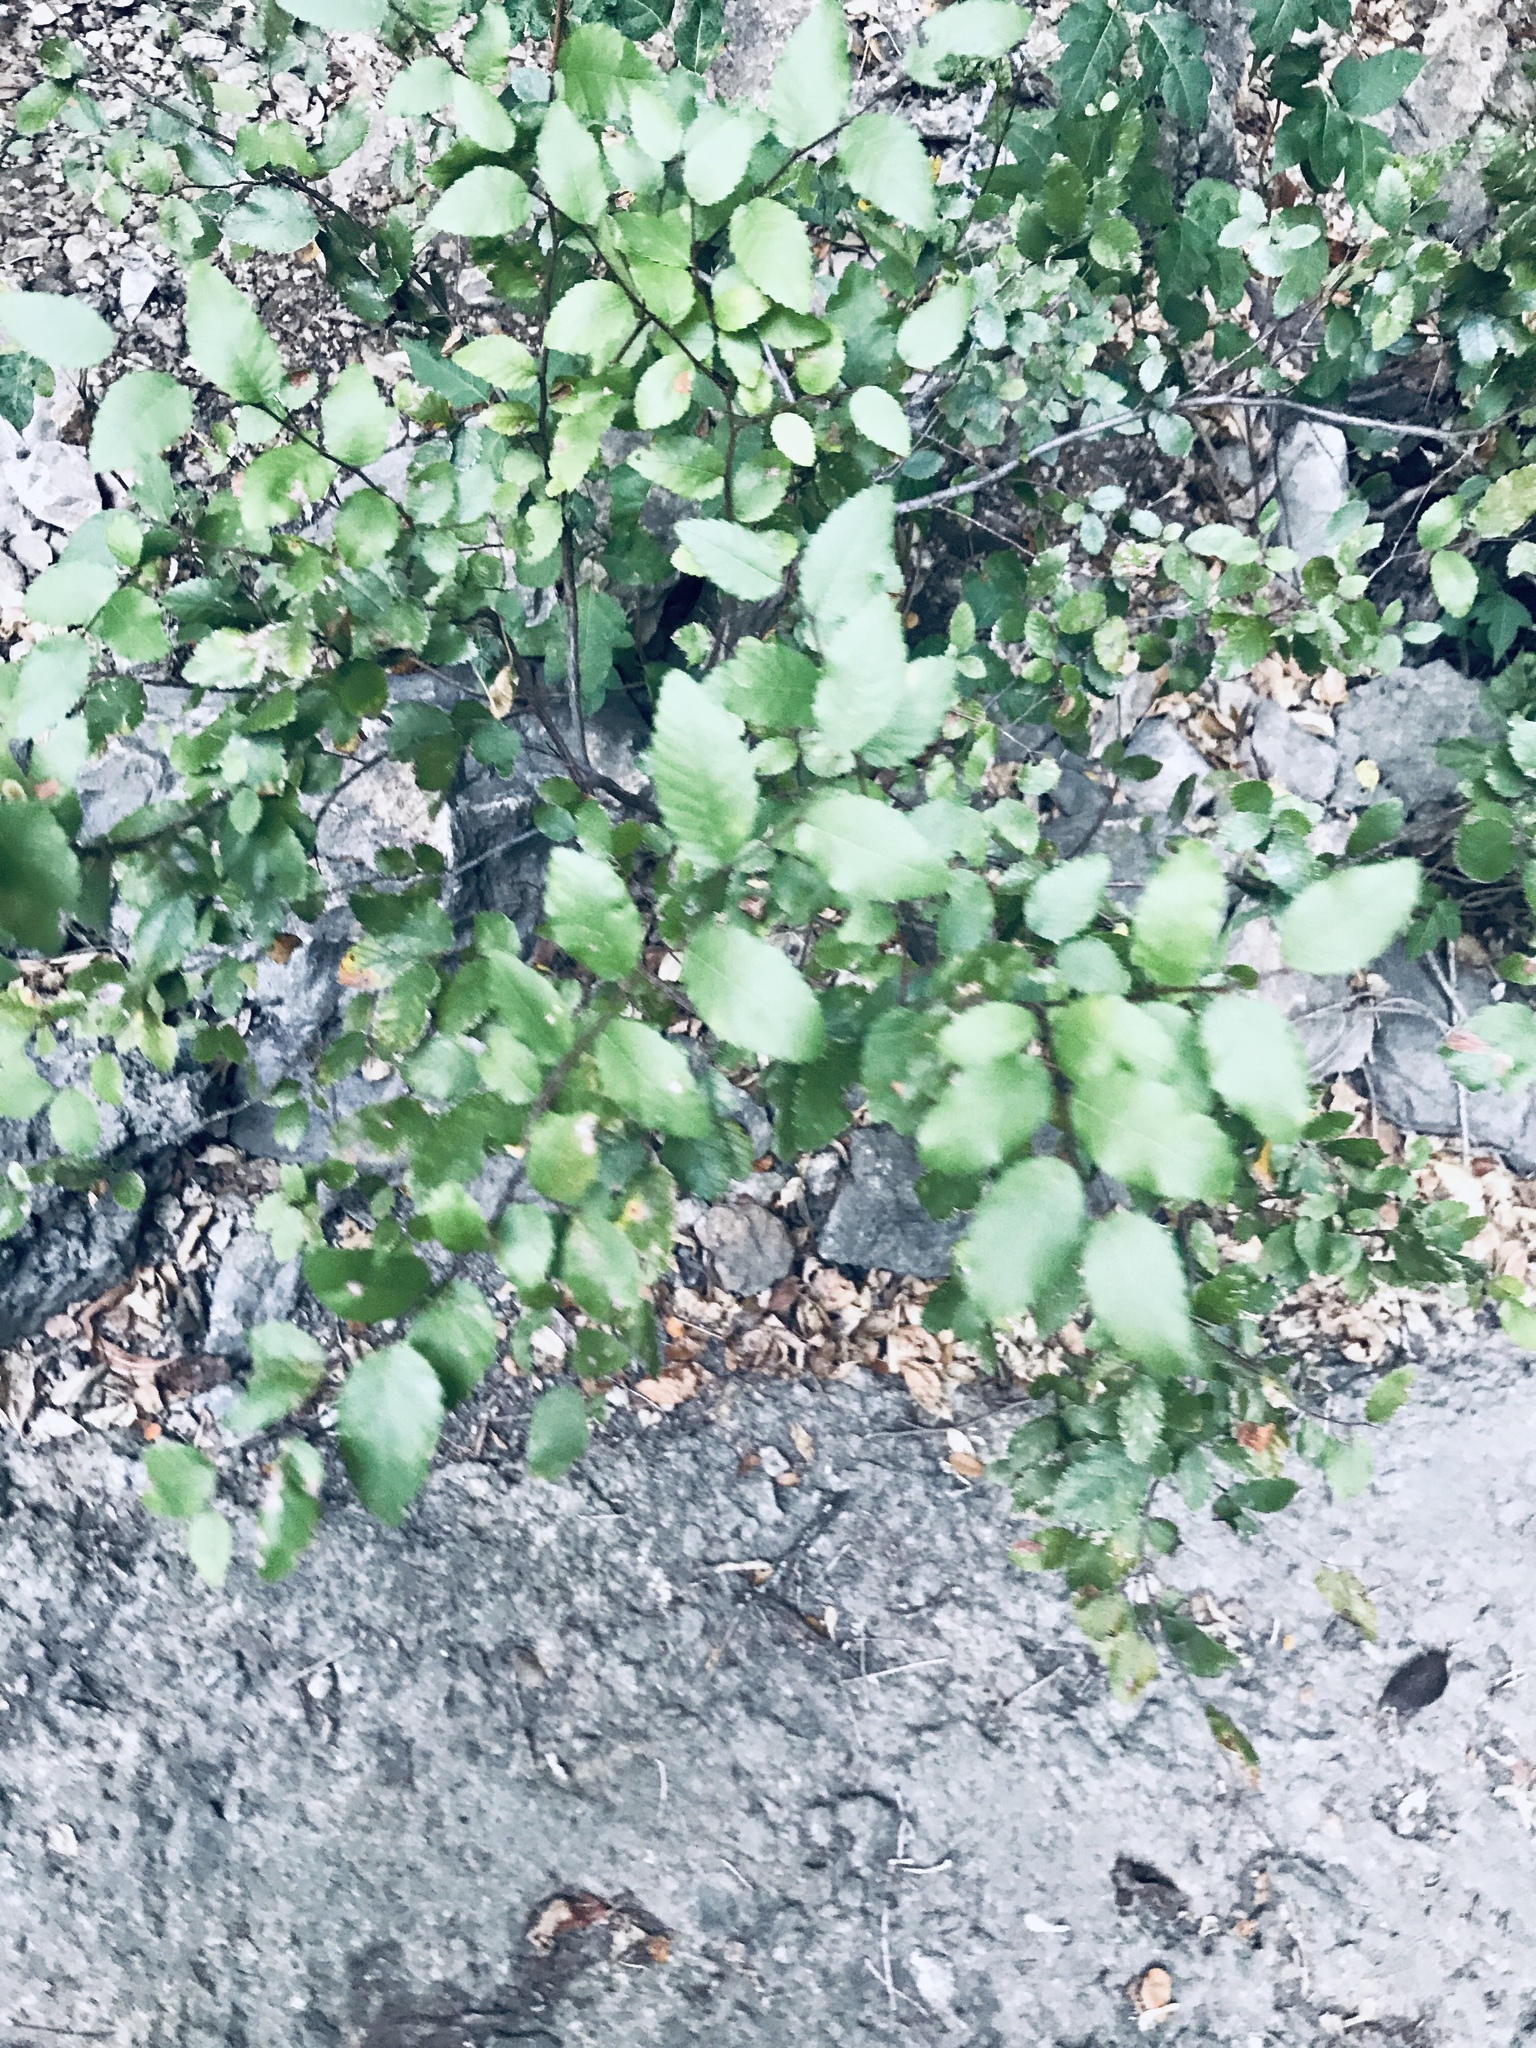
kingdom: Plantae
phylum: Tracheophyta
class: Magnoliopsida
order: Rosales
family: Ulmaceae
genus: Ulmus
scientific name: Ulmus crassifolia
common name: Basket elm
